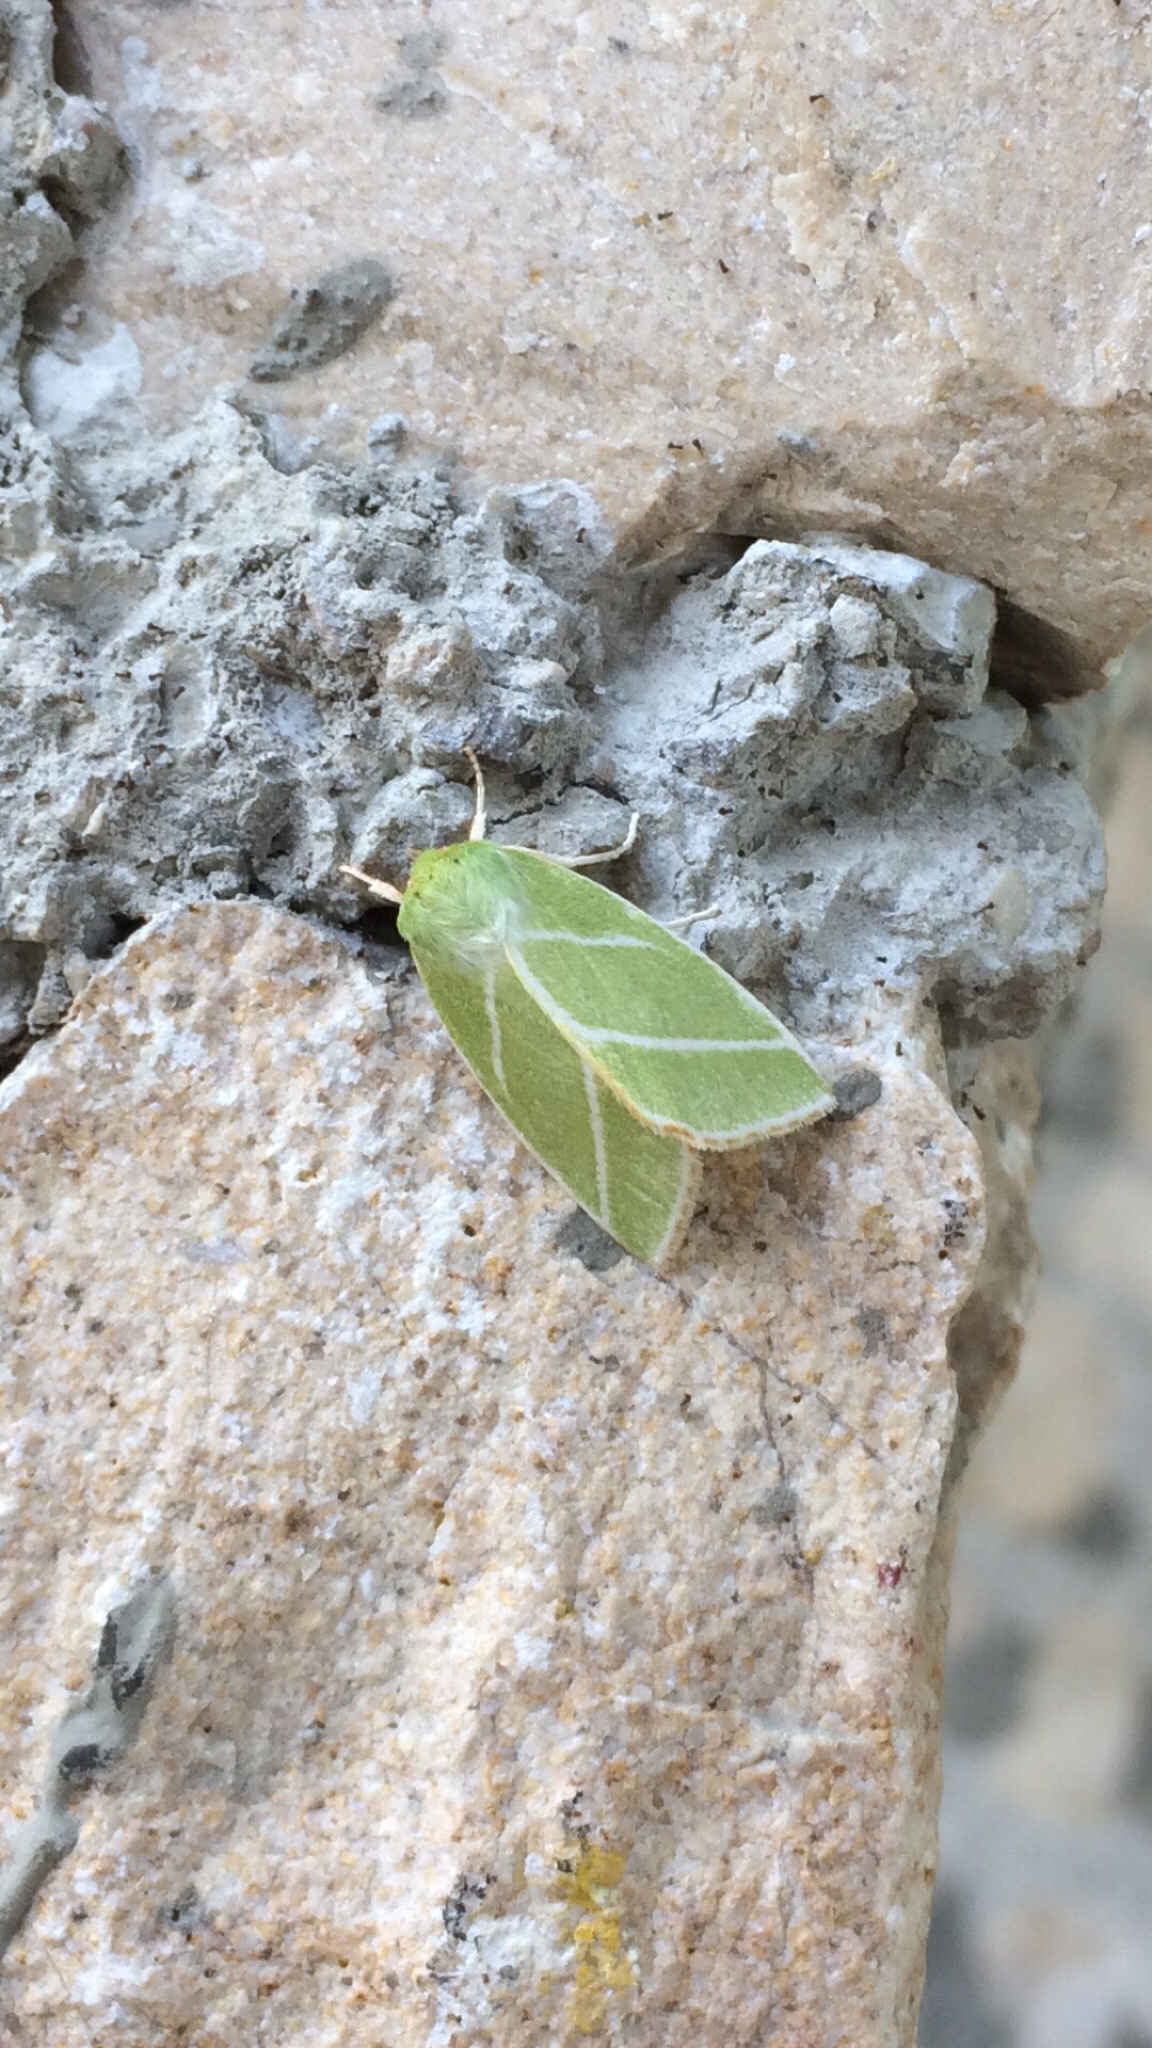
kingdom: Animalia
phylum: Arthropoda
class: Insecta
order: Lepidoptera
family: Nolidae
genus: Pseudoips
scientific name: Pseudoips prasinana
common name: Green silver-lines
